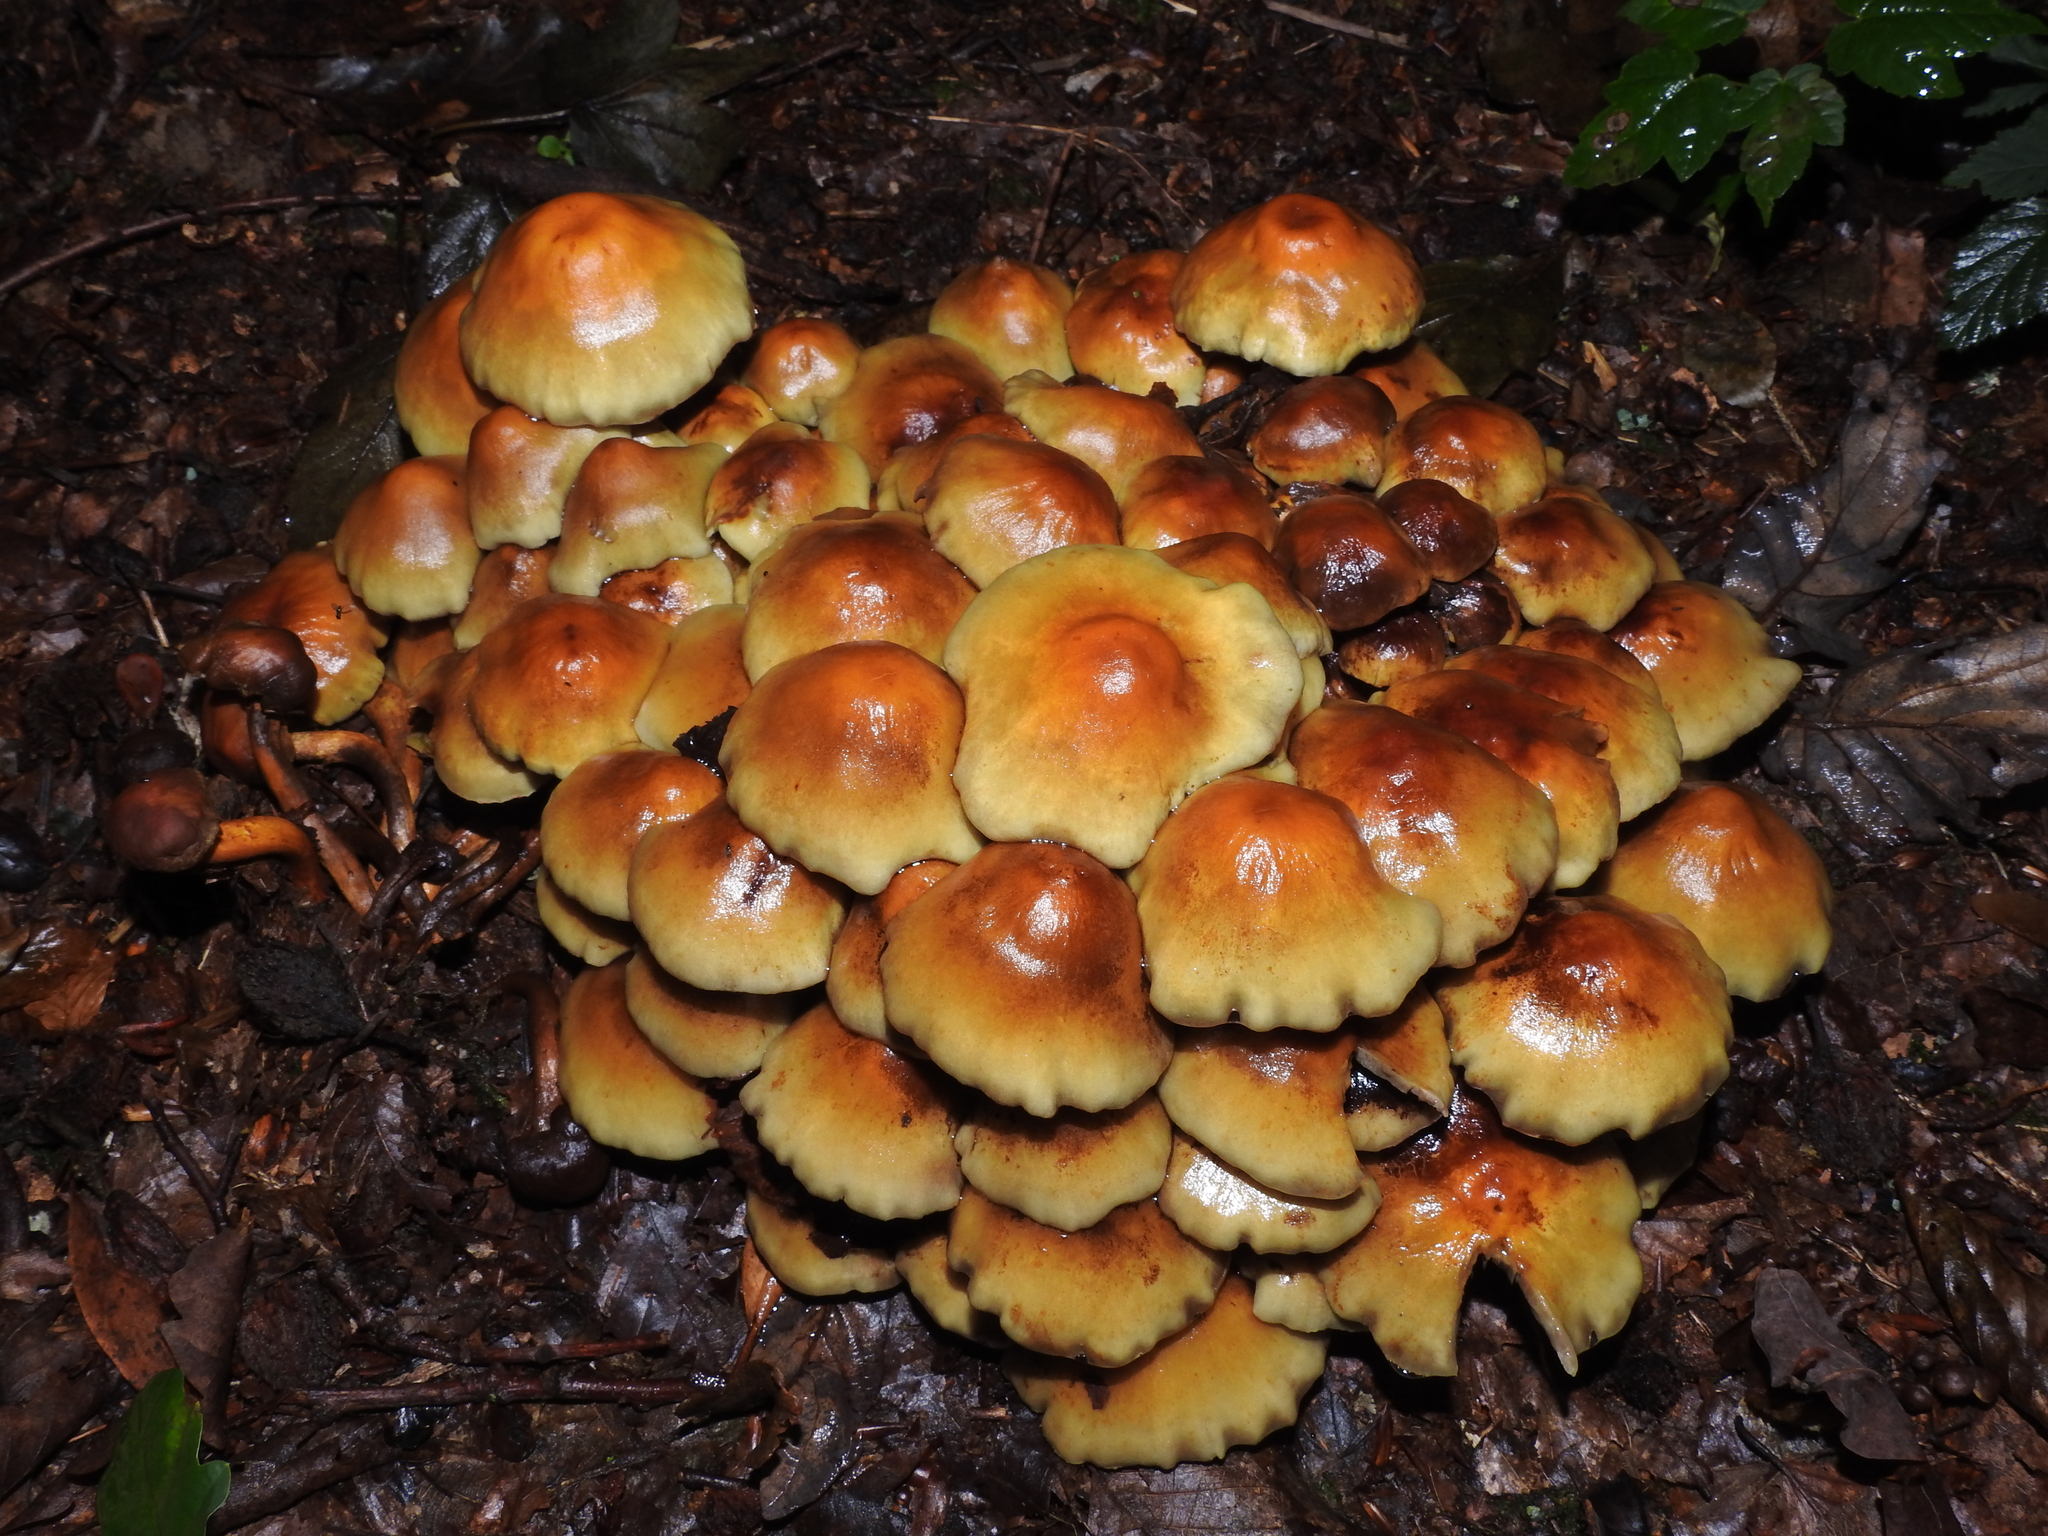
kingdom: Fungi
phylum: Basidiomycota
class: Agaricomycetes
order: Agaricales
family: Strophariaceae
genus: Hypholoma
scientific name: Hypholoma fasciculare
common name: Sulphur tuft
